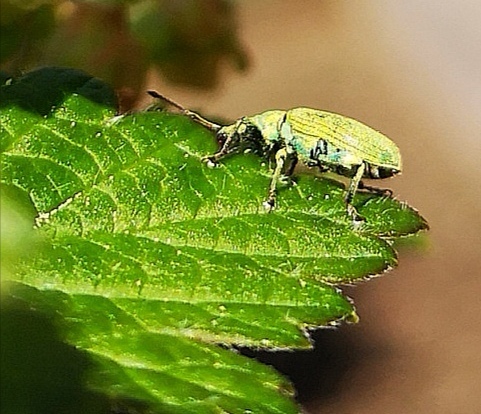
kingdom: Animalia
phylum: Arthropoda
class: Insecta
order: Coleoptera
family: Curculionidae
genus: Phyllobius
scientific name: Phyllobius pomaceus
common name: Green nettle weevil
